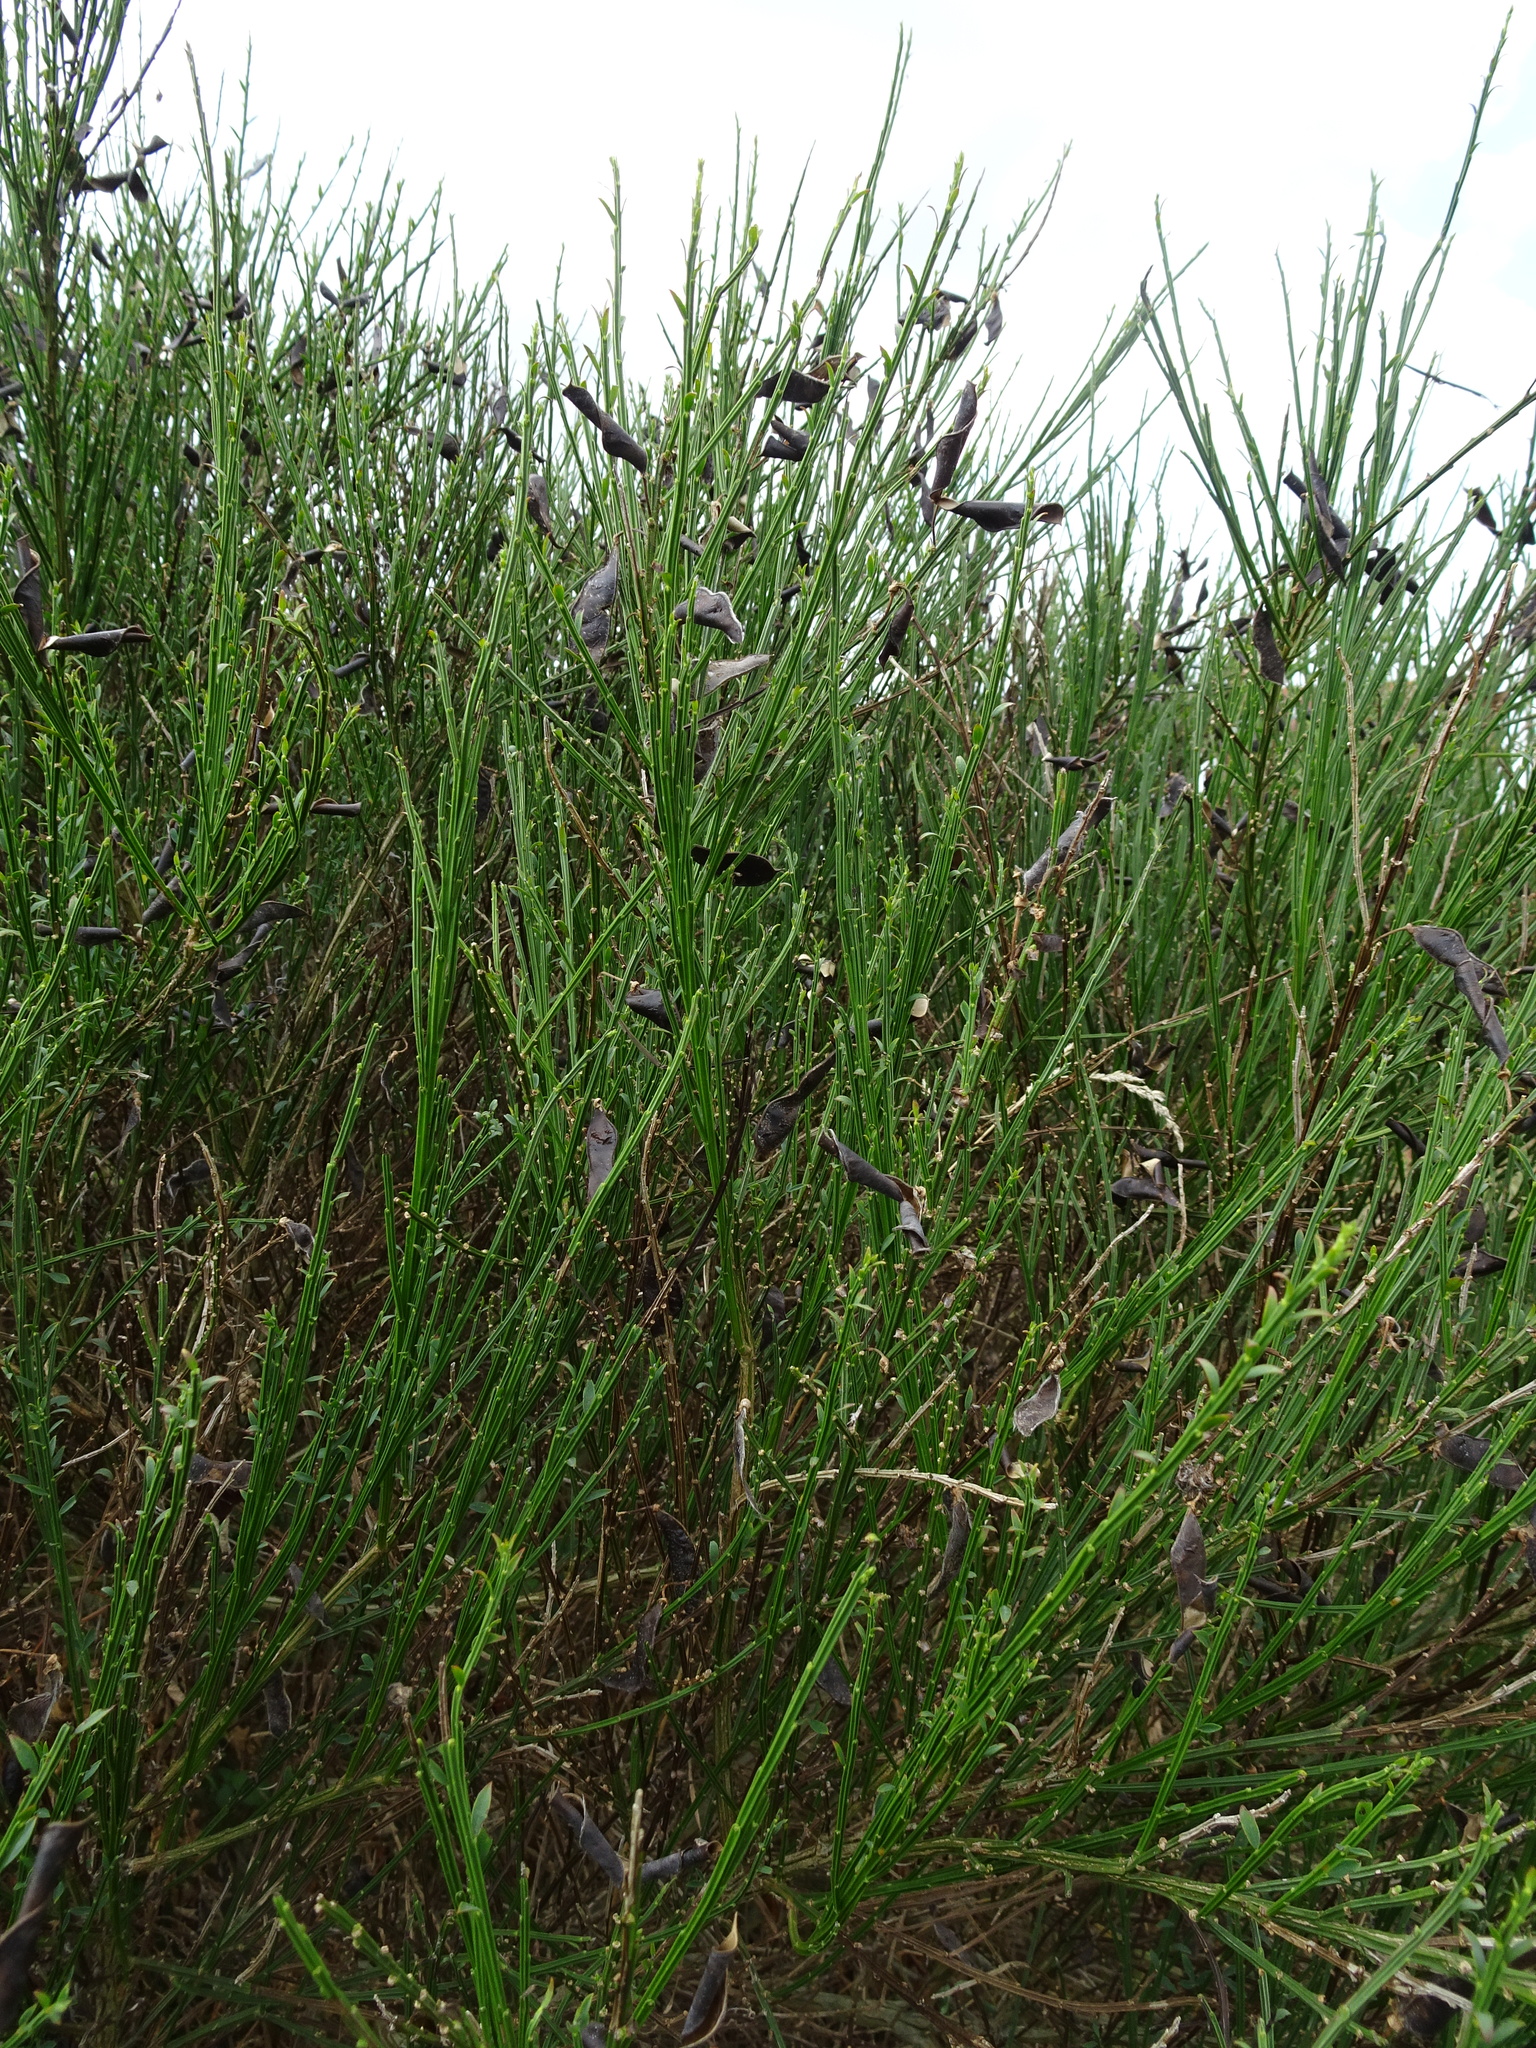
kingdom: Plantae
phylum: Tracheophyta
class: Magnoliopsida
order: Fabales
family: Fabaceae
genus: Cytisus
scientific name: Cytisus scoparius
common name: Scotch broom
